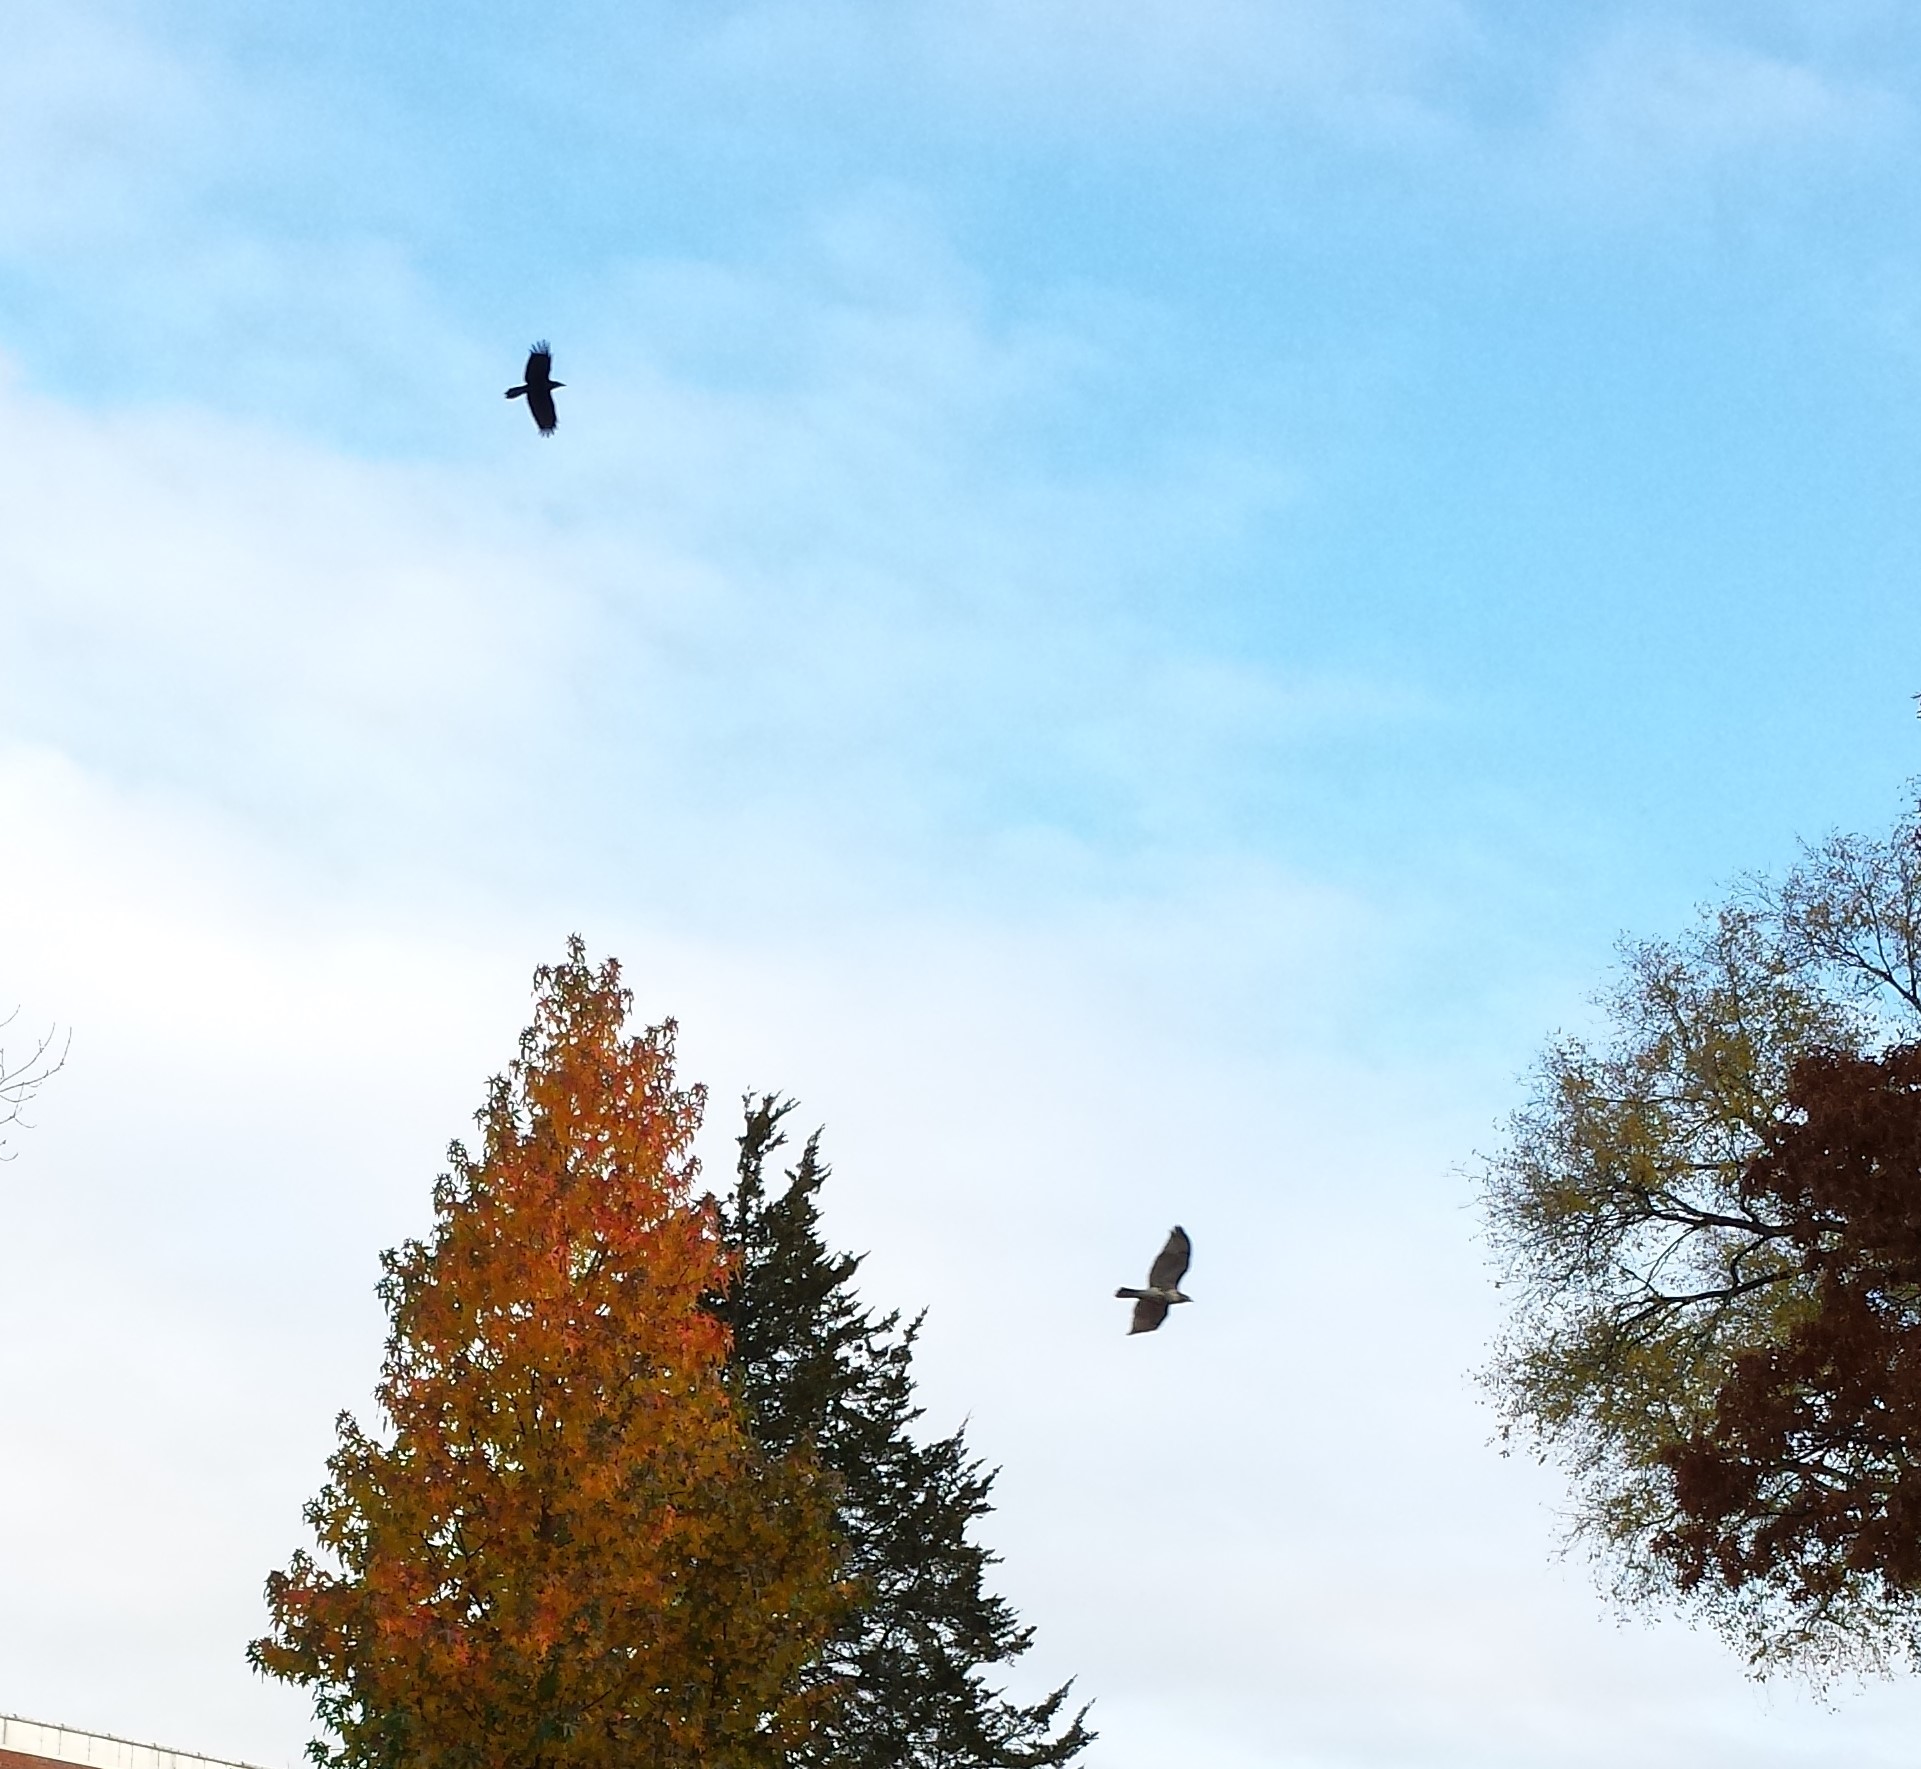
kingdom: Animalia
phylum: Chordata
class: Aves
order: Passeriformes
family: Corvidae
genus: Corvus
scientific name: Corvus brachyrhynchos
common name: American crow
